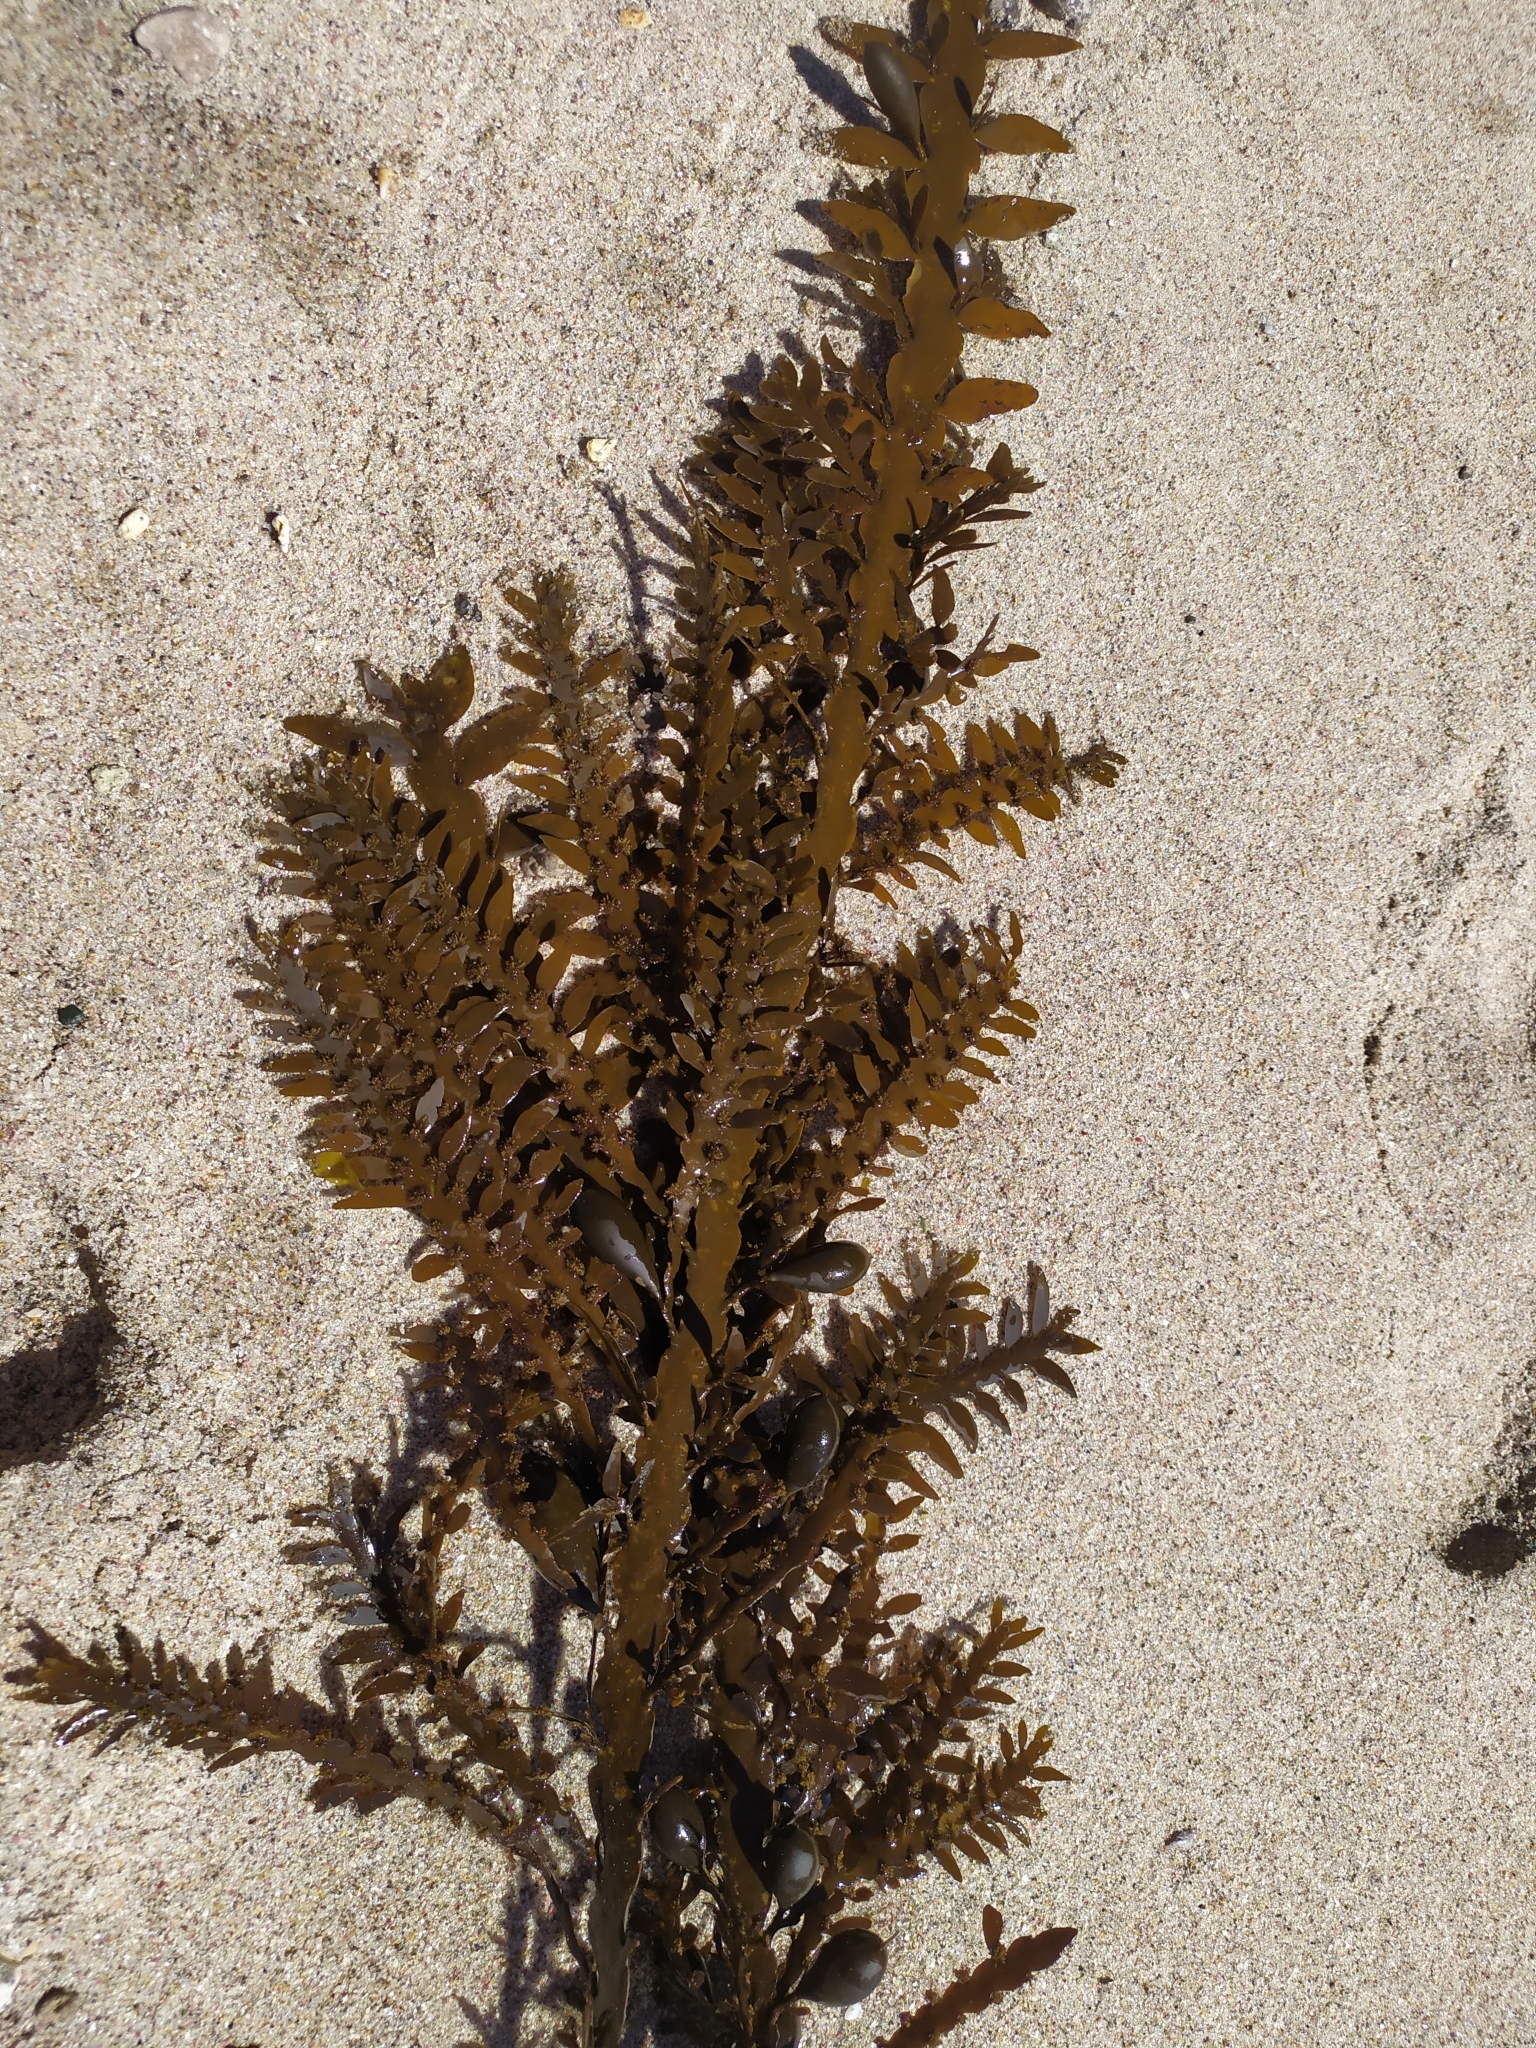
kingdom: Chromista
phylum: Ochrophyta
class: Phaeophyceae
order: Fucales
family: Sargassaceae
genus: Carpophyllum
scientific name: Carpophyllum maschalocarpum
